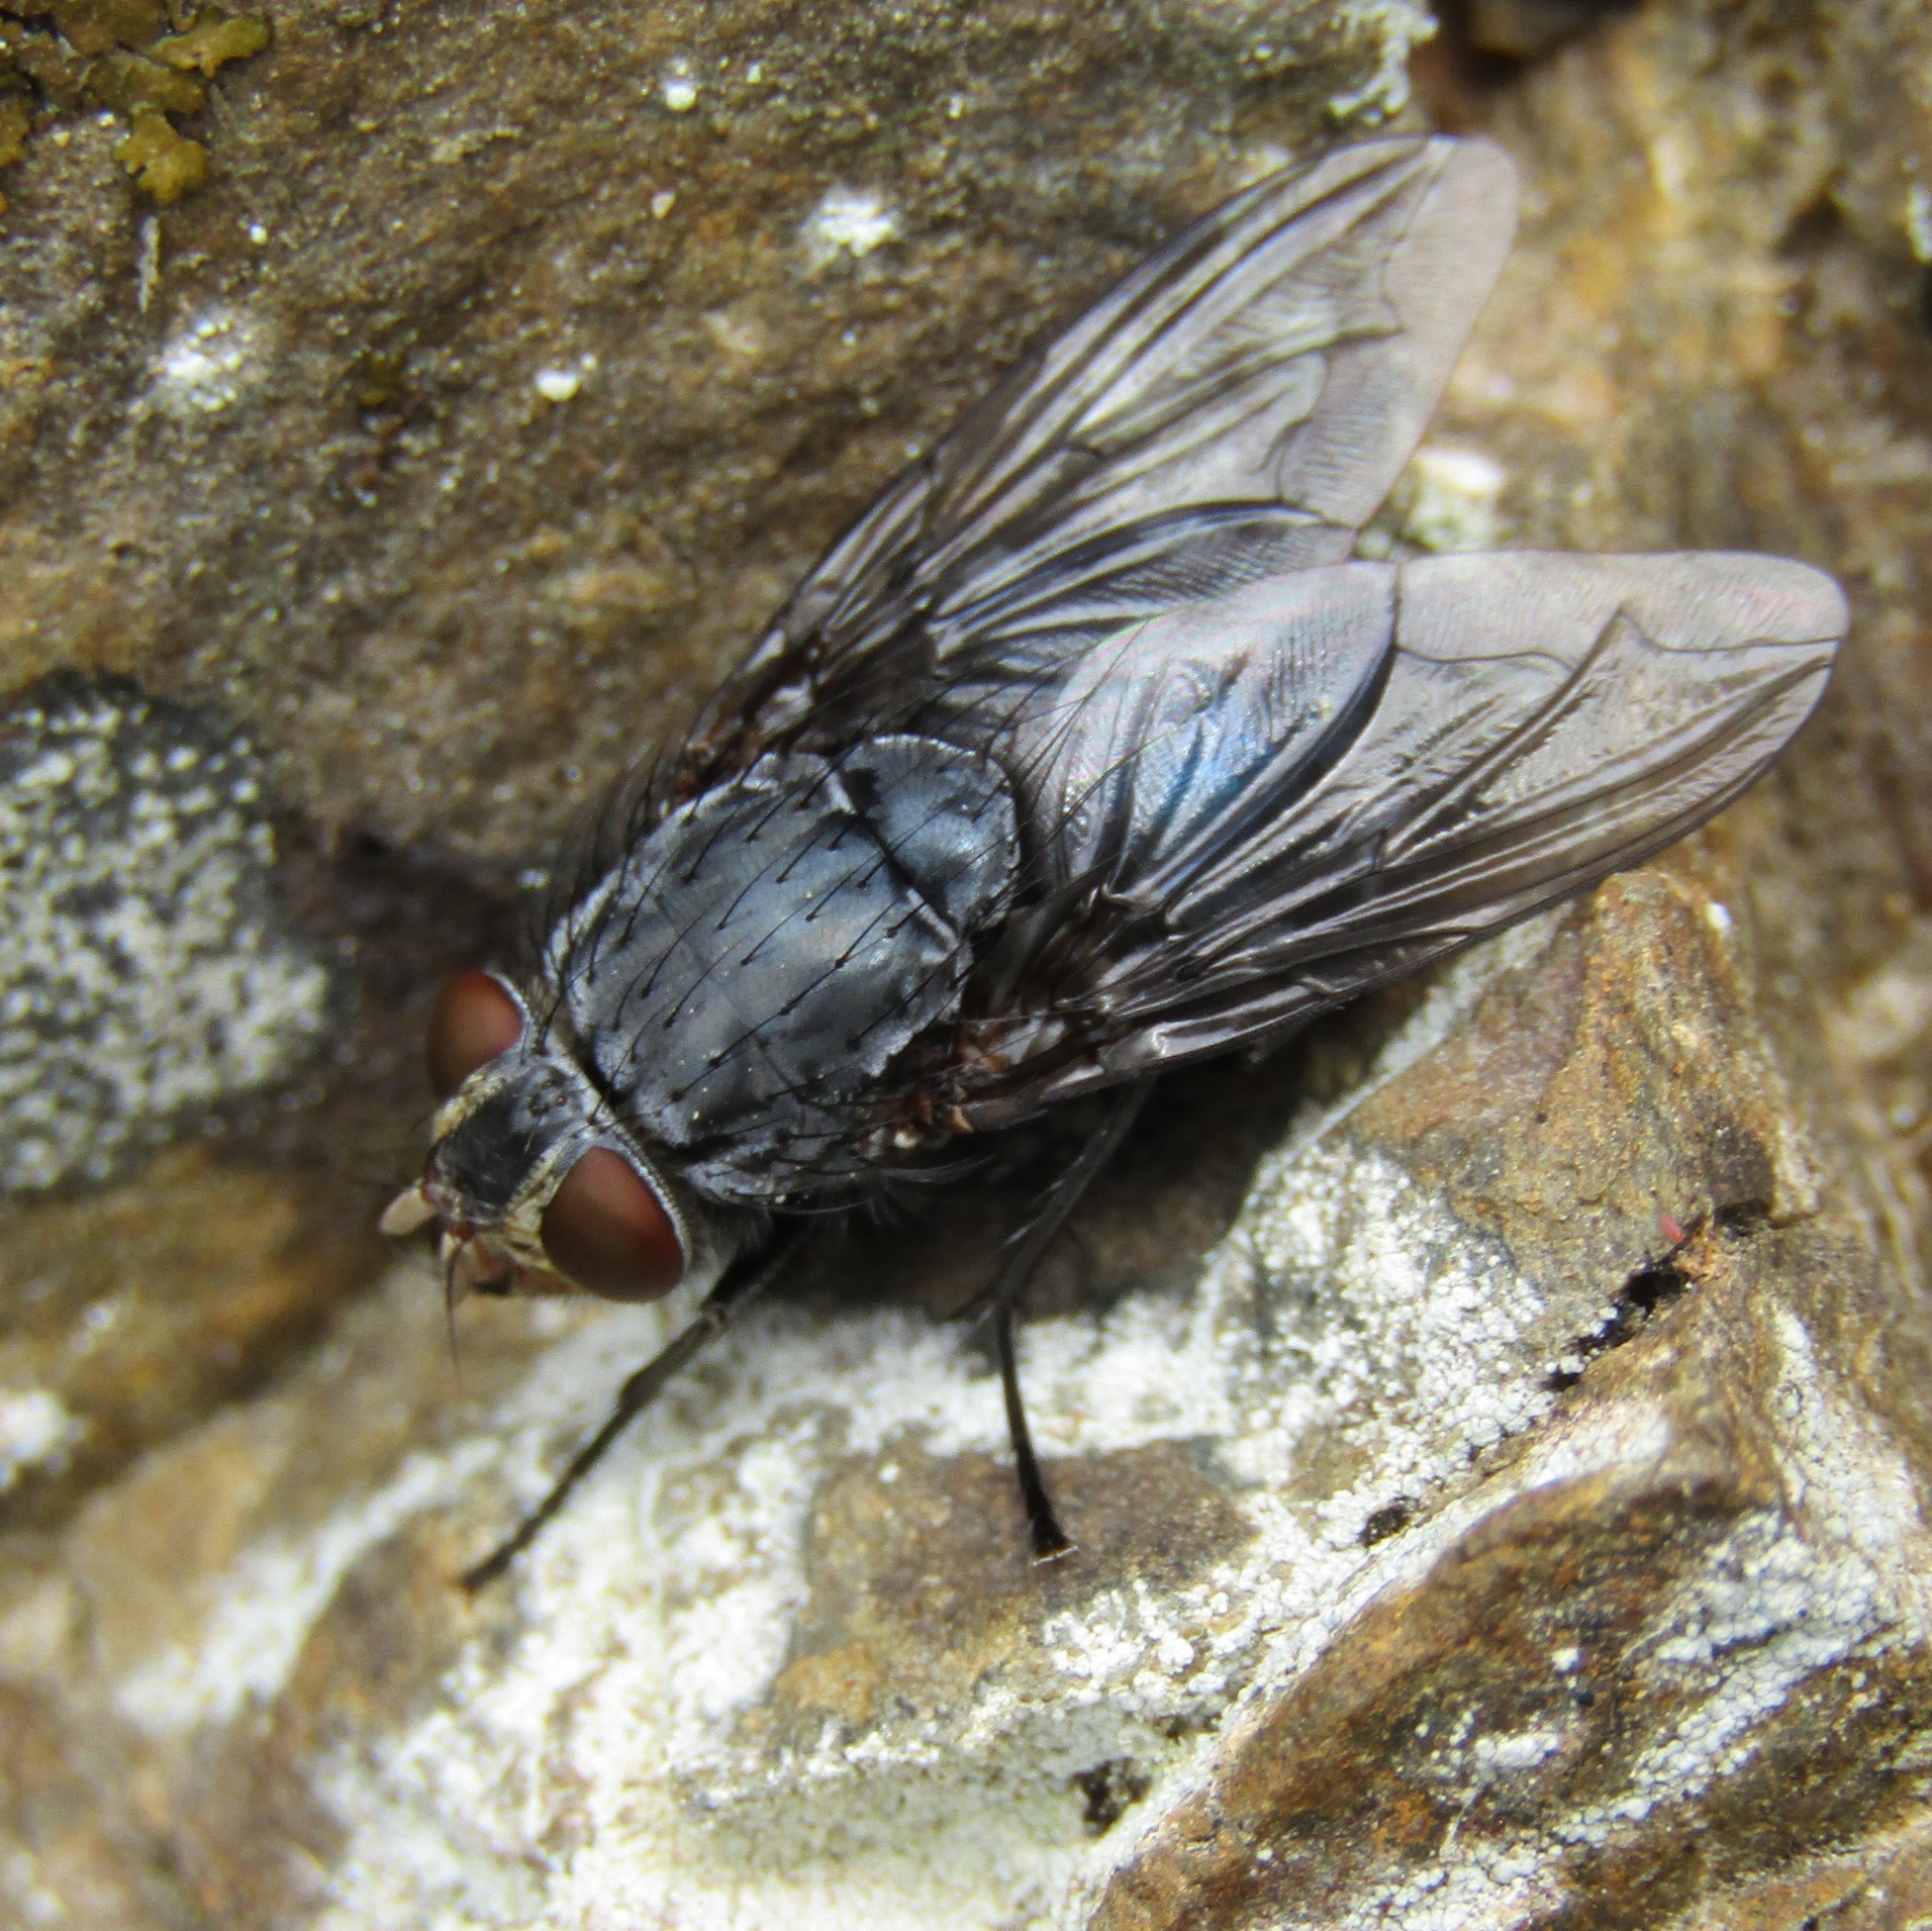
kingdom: Animalia
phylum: Arthropoda
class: Insecta
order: Diptera
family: Calliphoridae
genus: Calliphora
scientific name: Calliphora vicina
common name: Common blow flie
